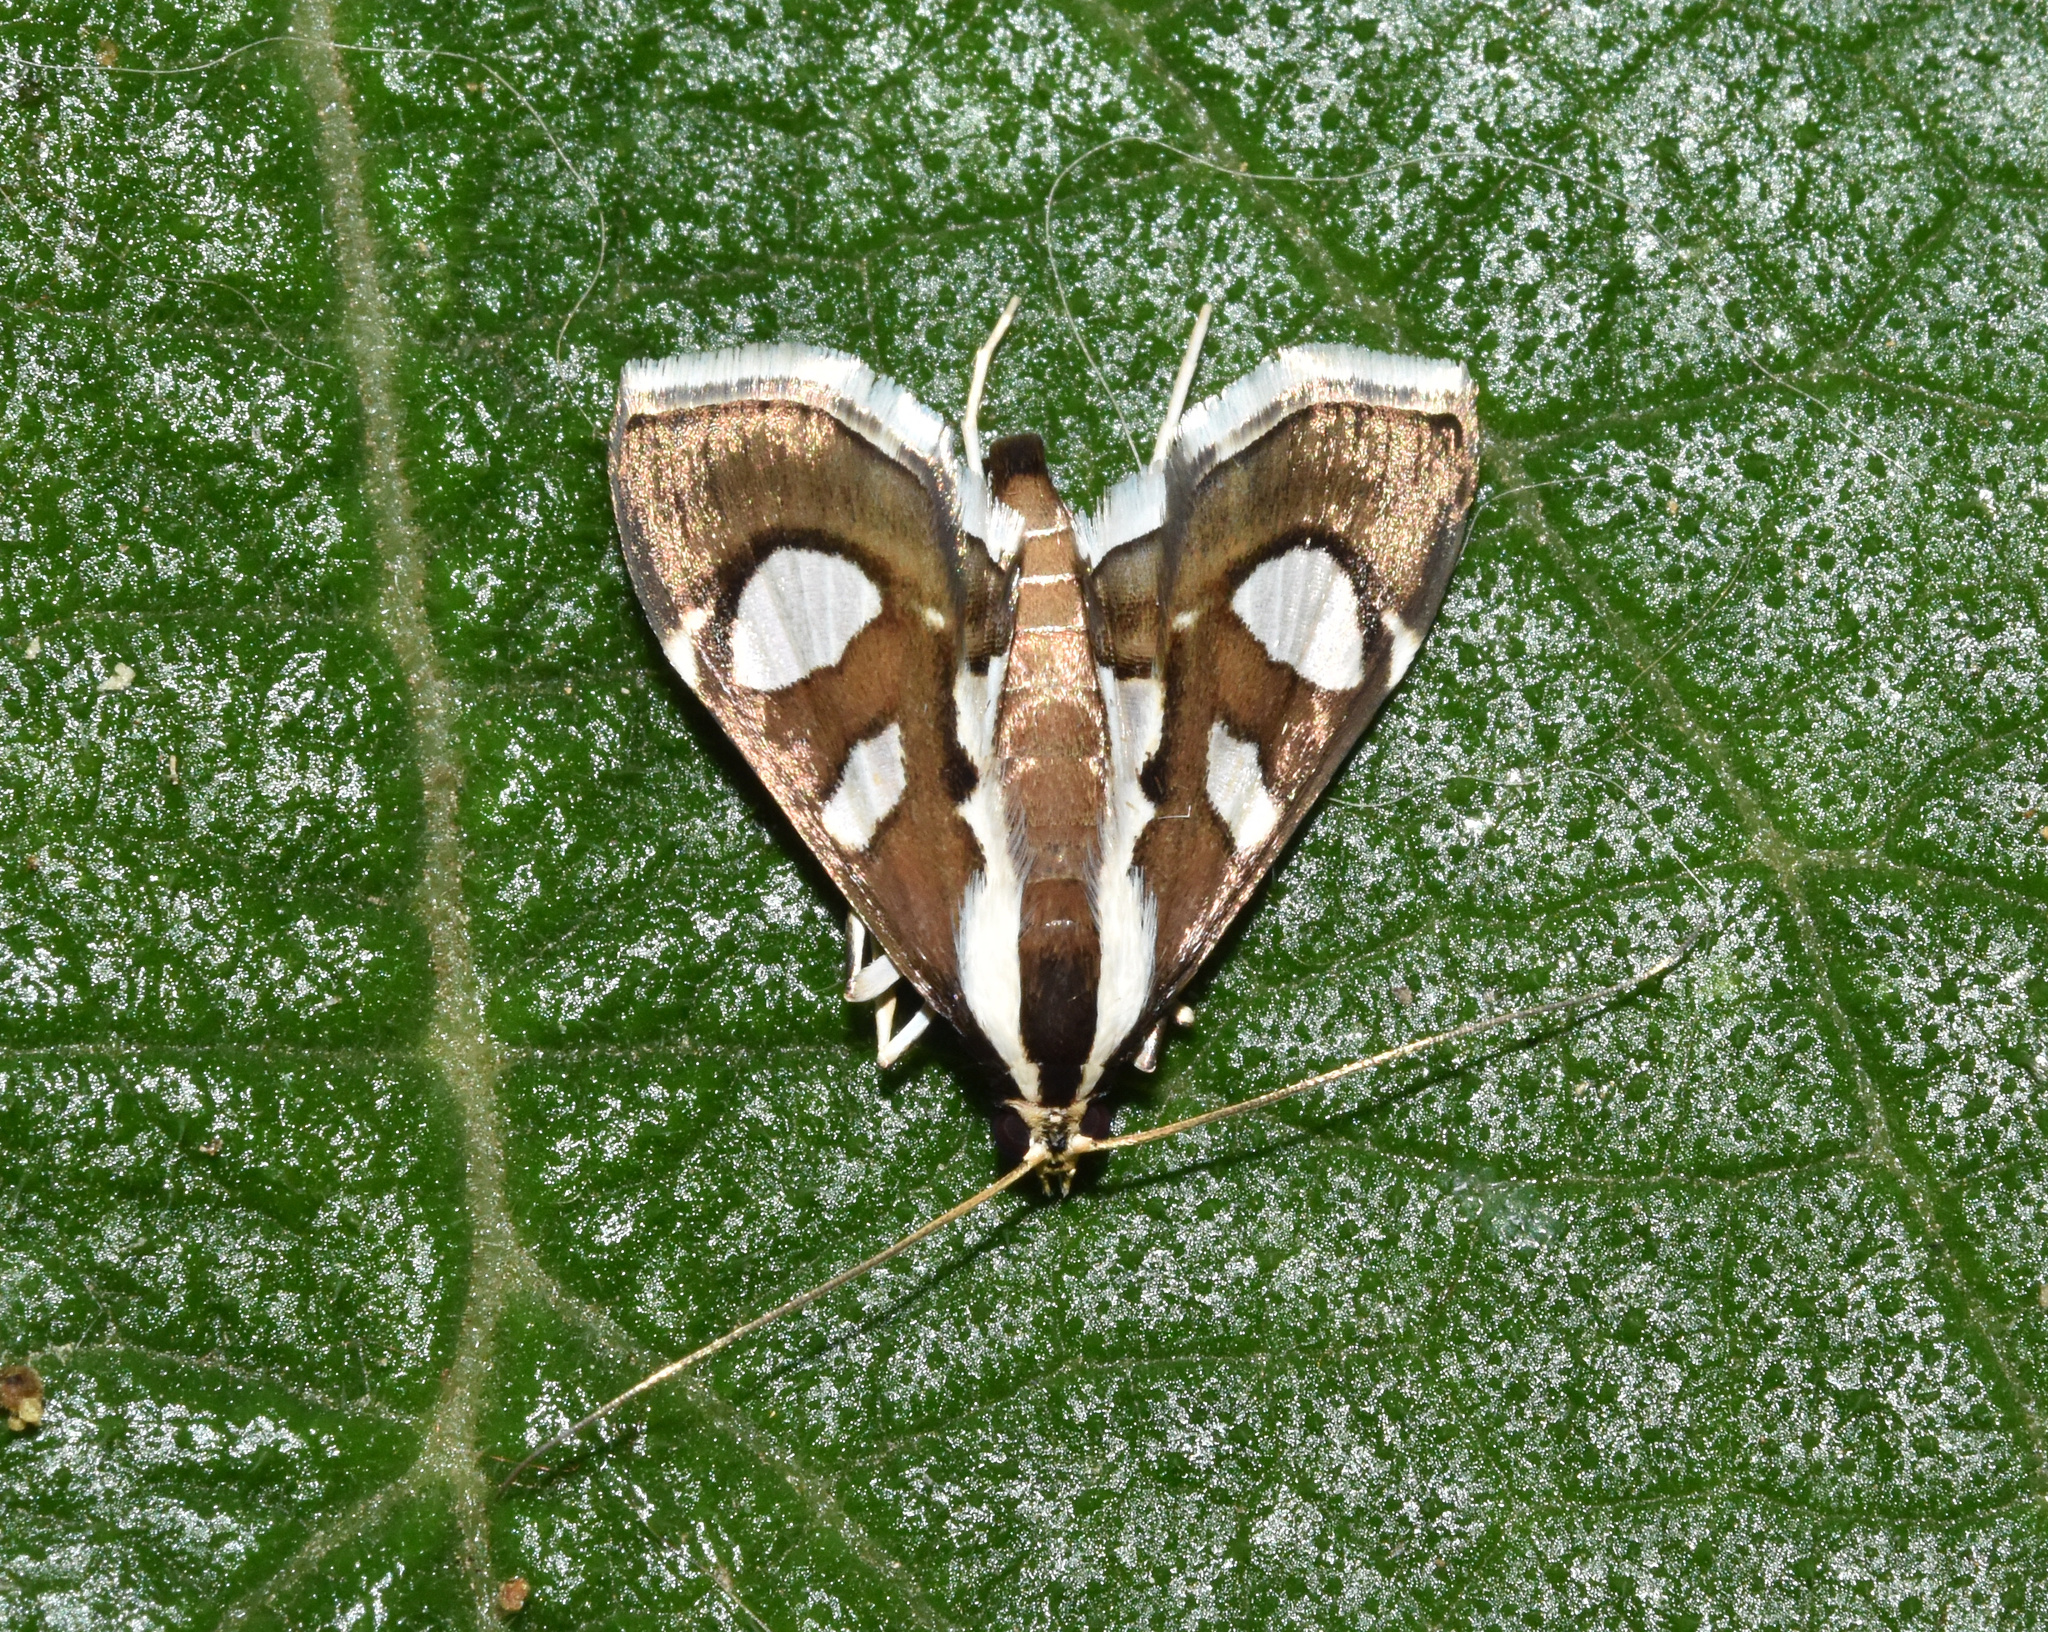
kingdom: Animalia
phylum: Arthropoda
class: Insecta
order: Lepidoptera
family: Crambidae
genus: Glyphodes
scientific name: Glyphodes bicolor
